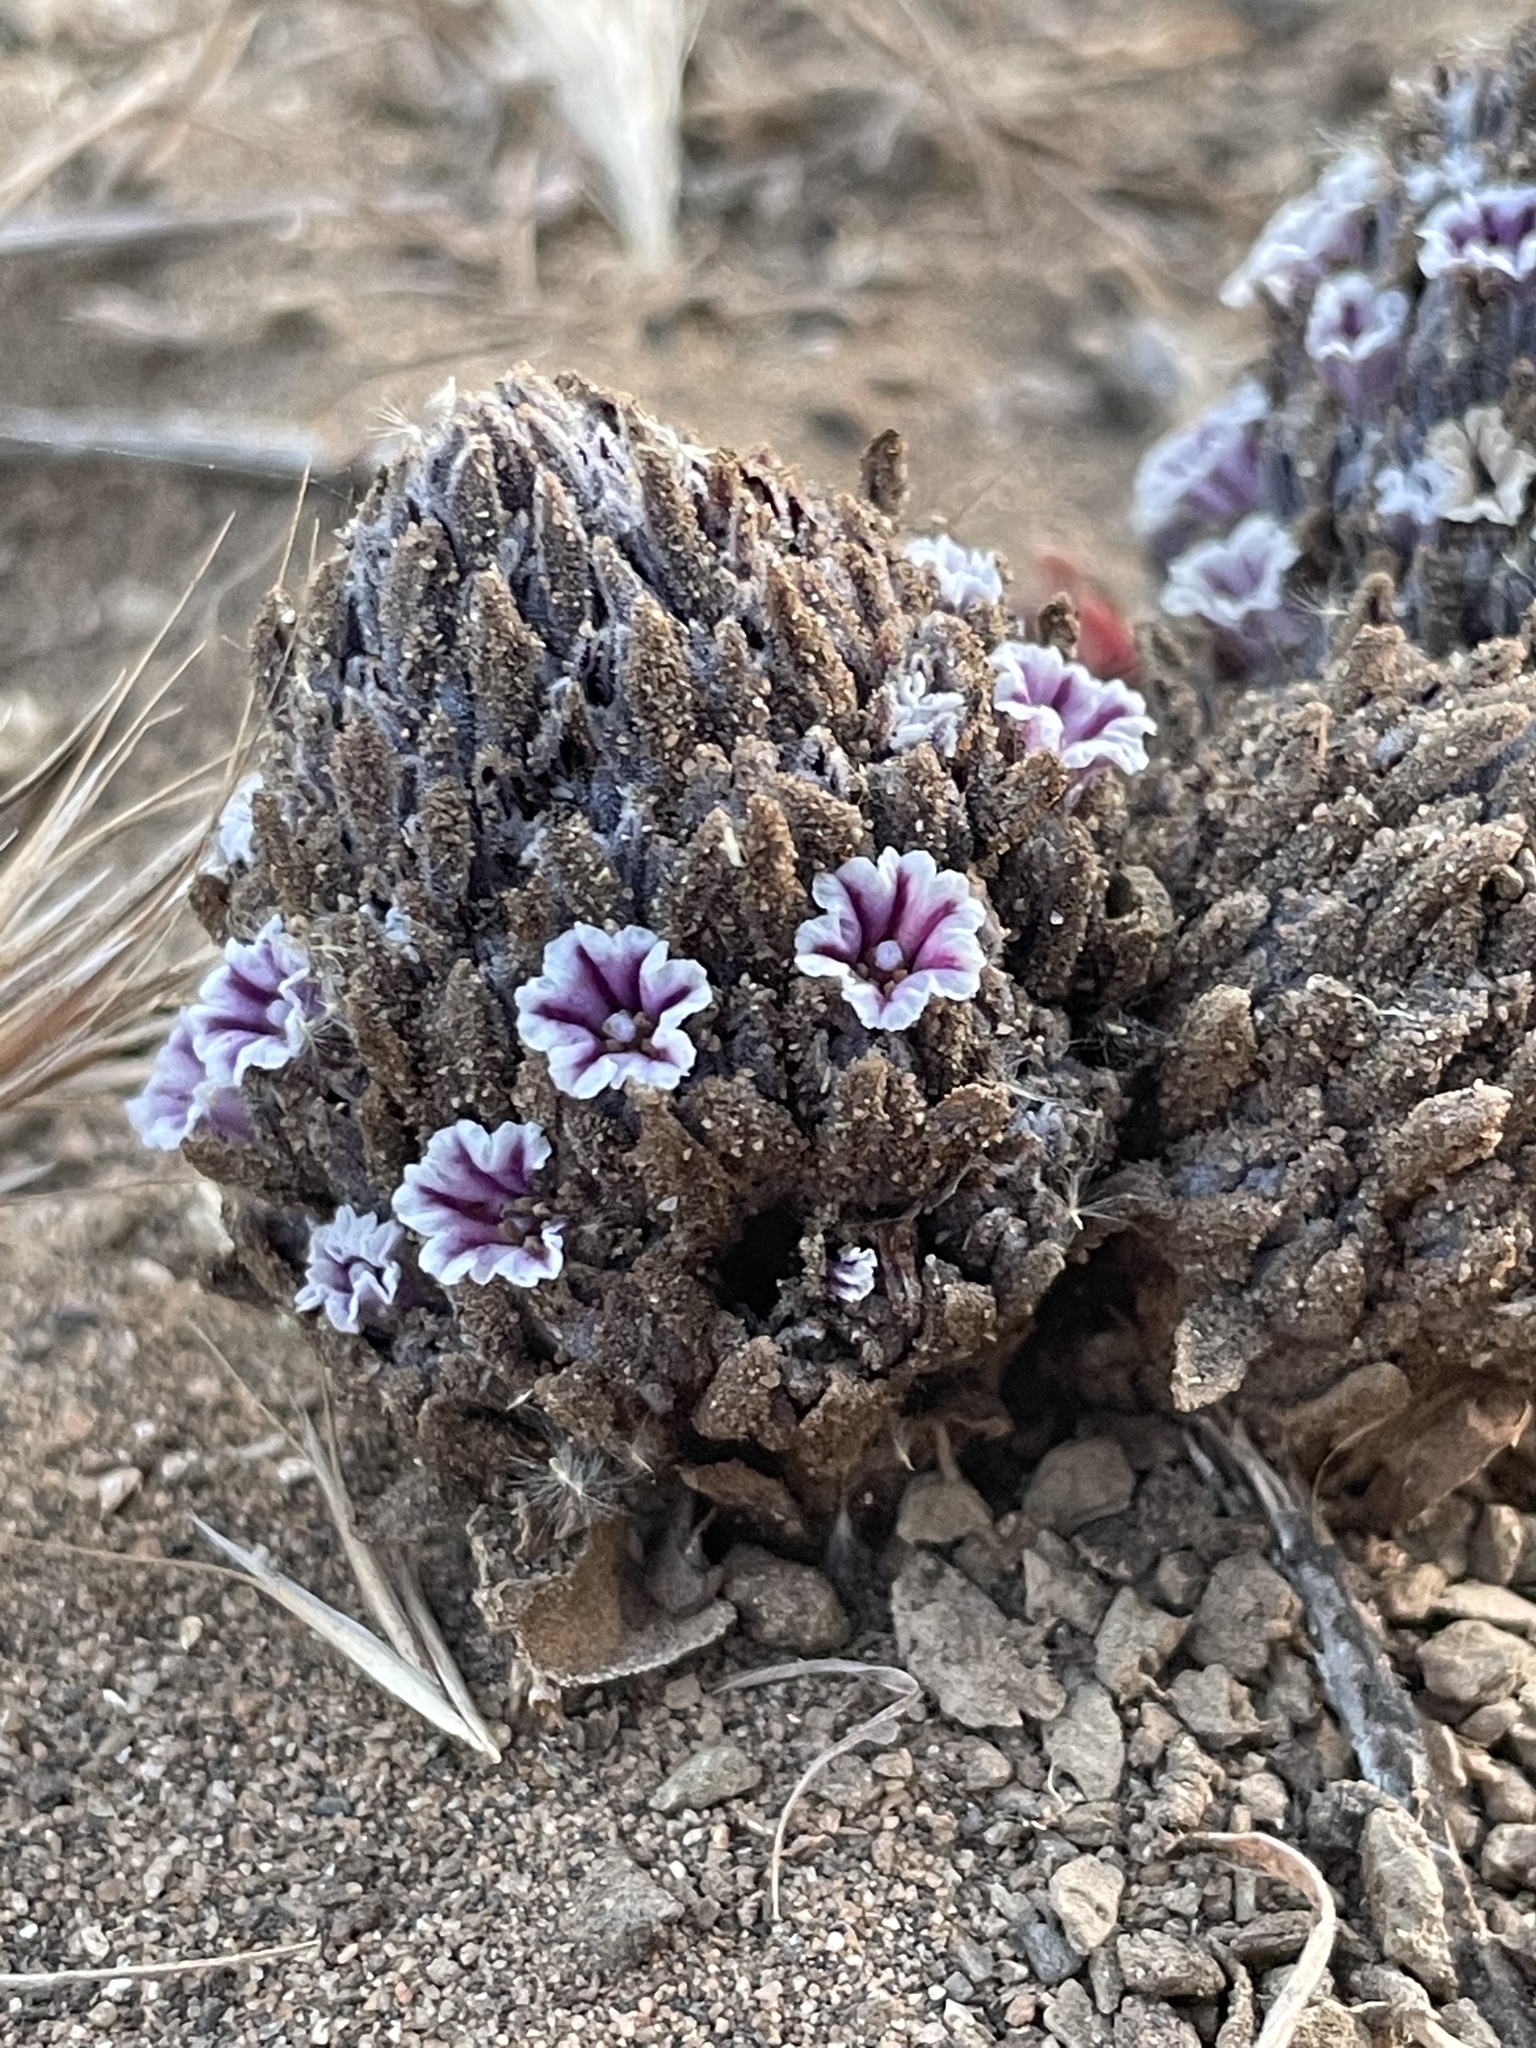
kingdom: Plantae
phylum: Tracheophyta
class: Magnoliopsida
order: Boraginales
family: Lennoaceae
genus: Pholisma
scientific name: Pholisma arenarium
